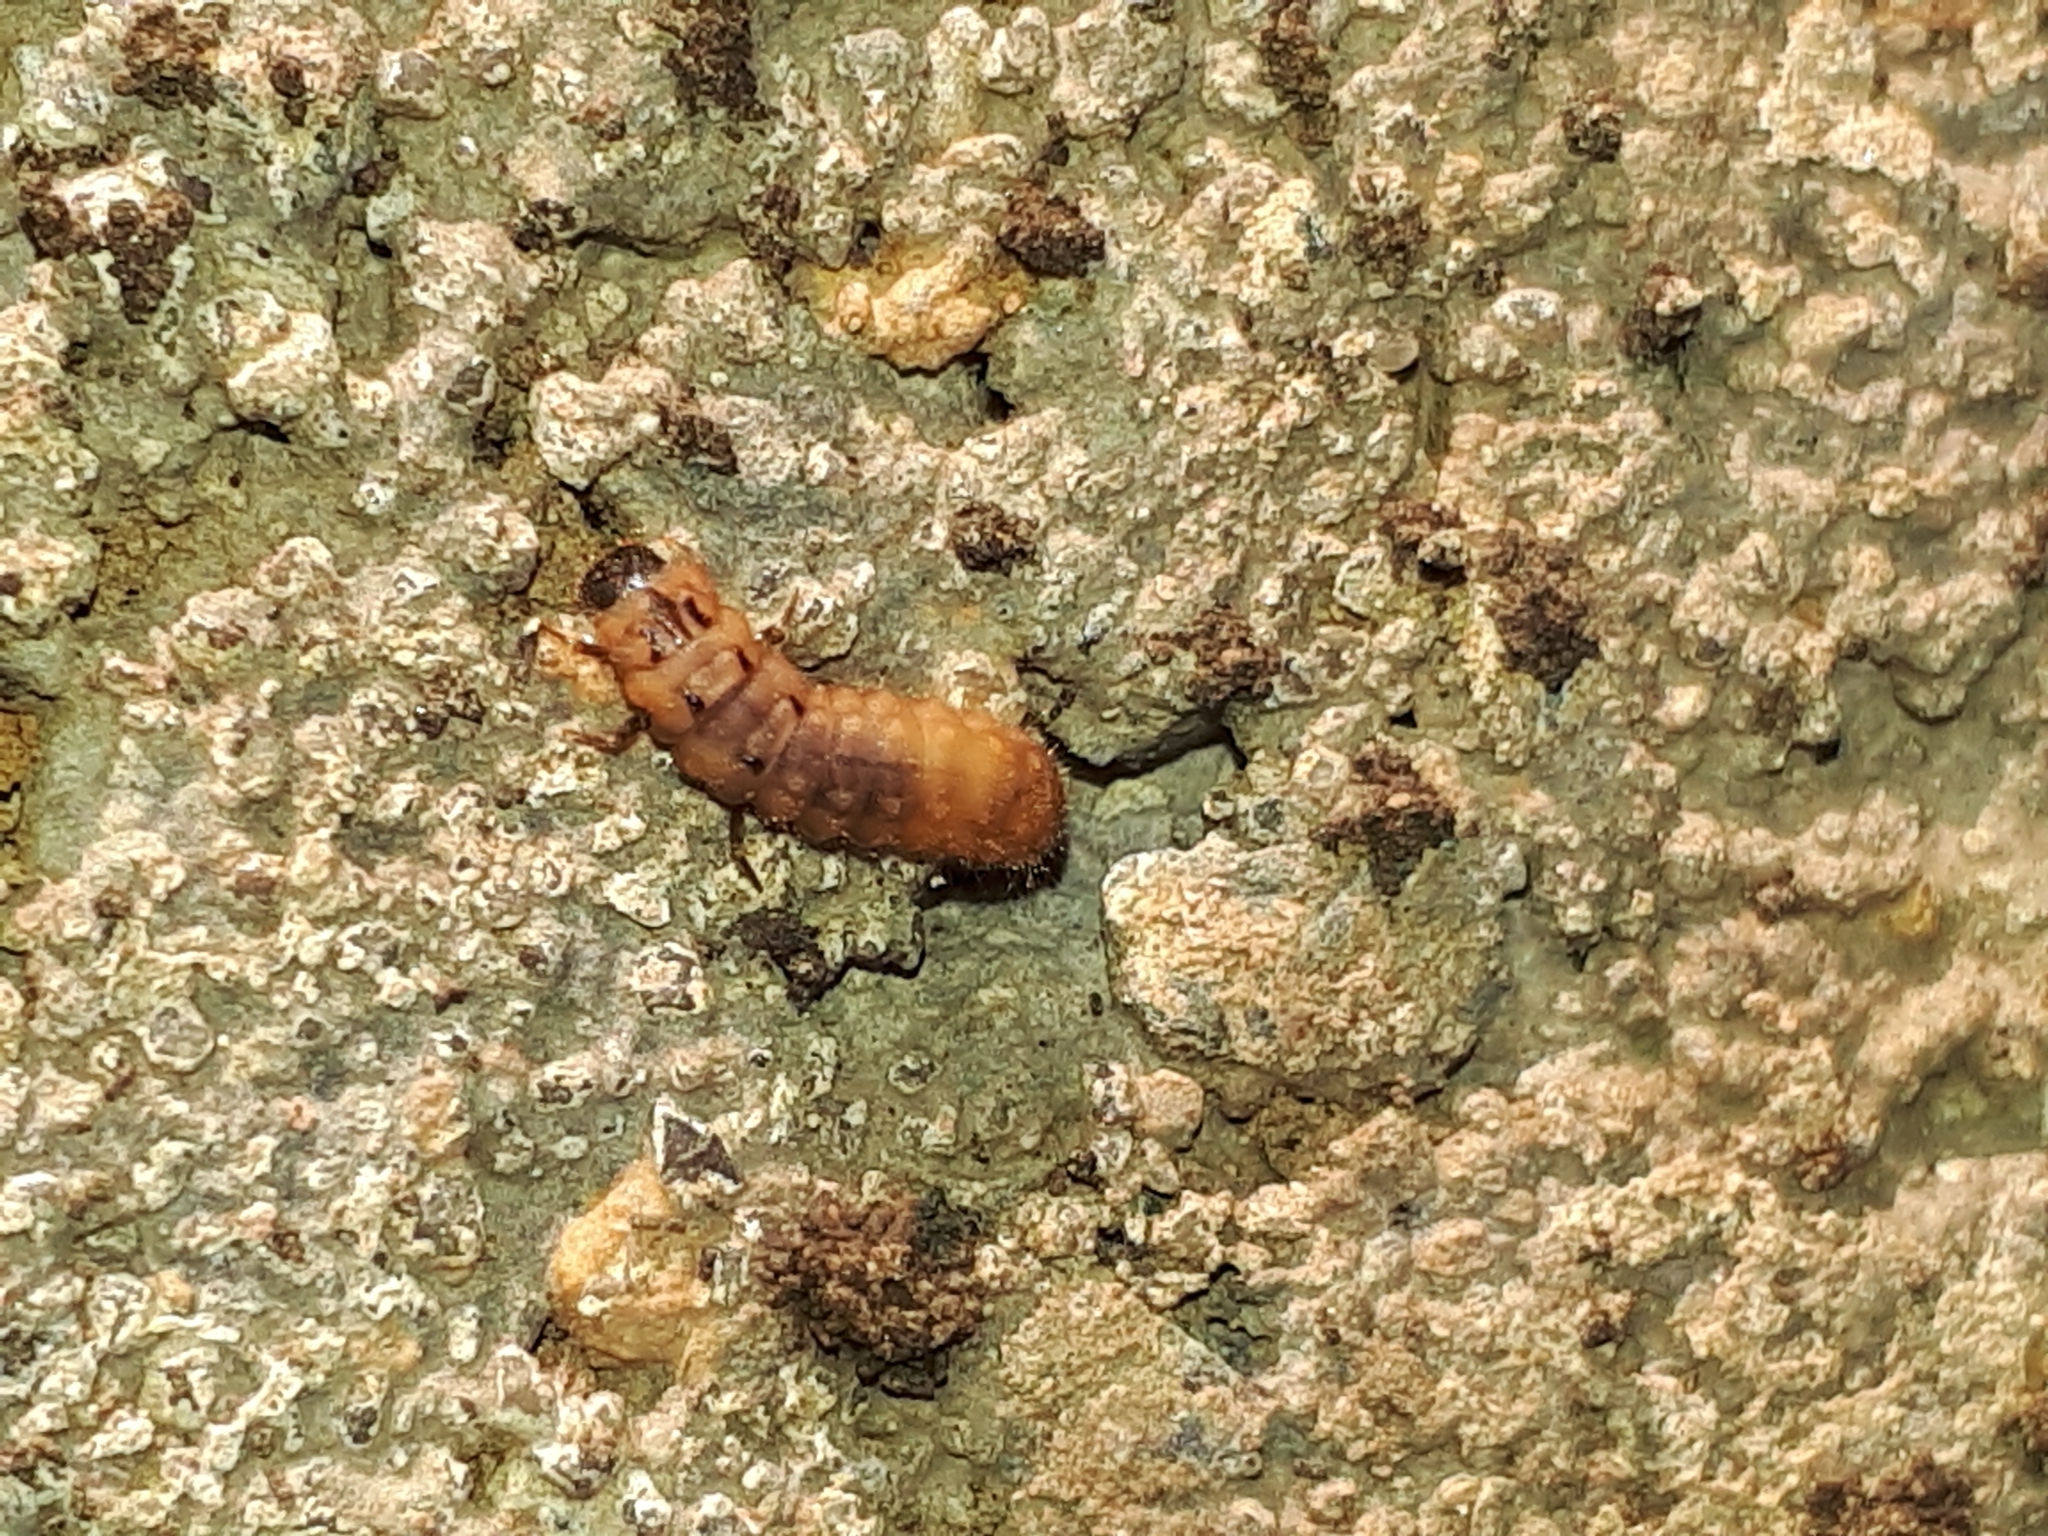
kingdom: Animalia
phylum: Arthropoda
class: Insecta
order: Coleoptera
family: Melyridae
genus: Malachius
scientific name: Malachius bipustulatus
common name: Malachite beetle
